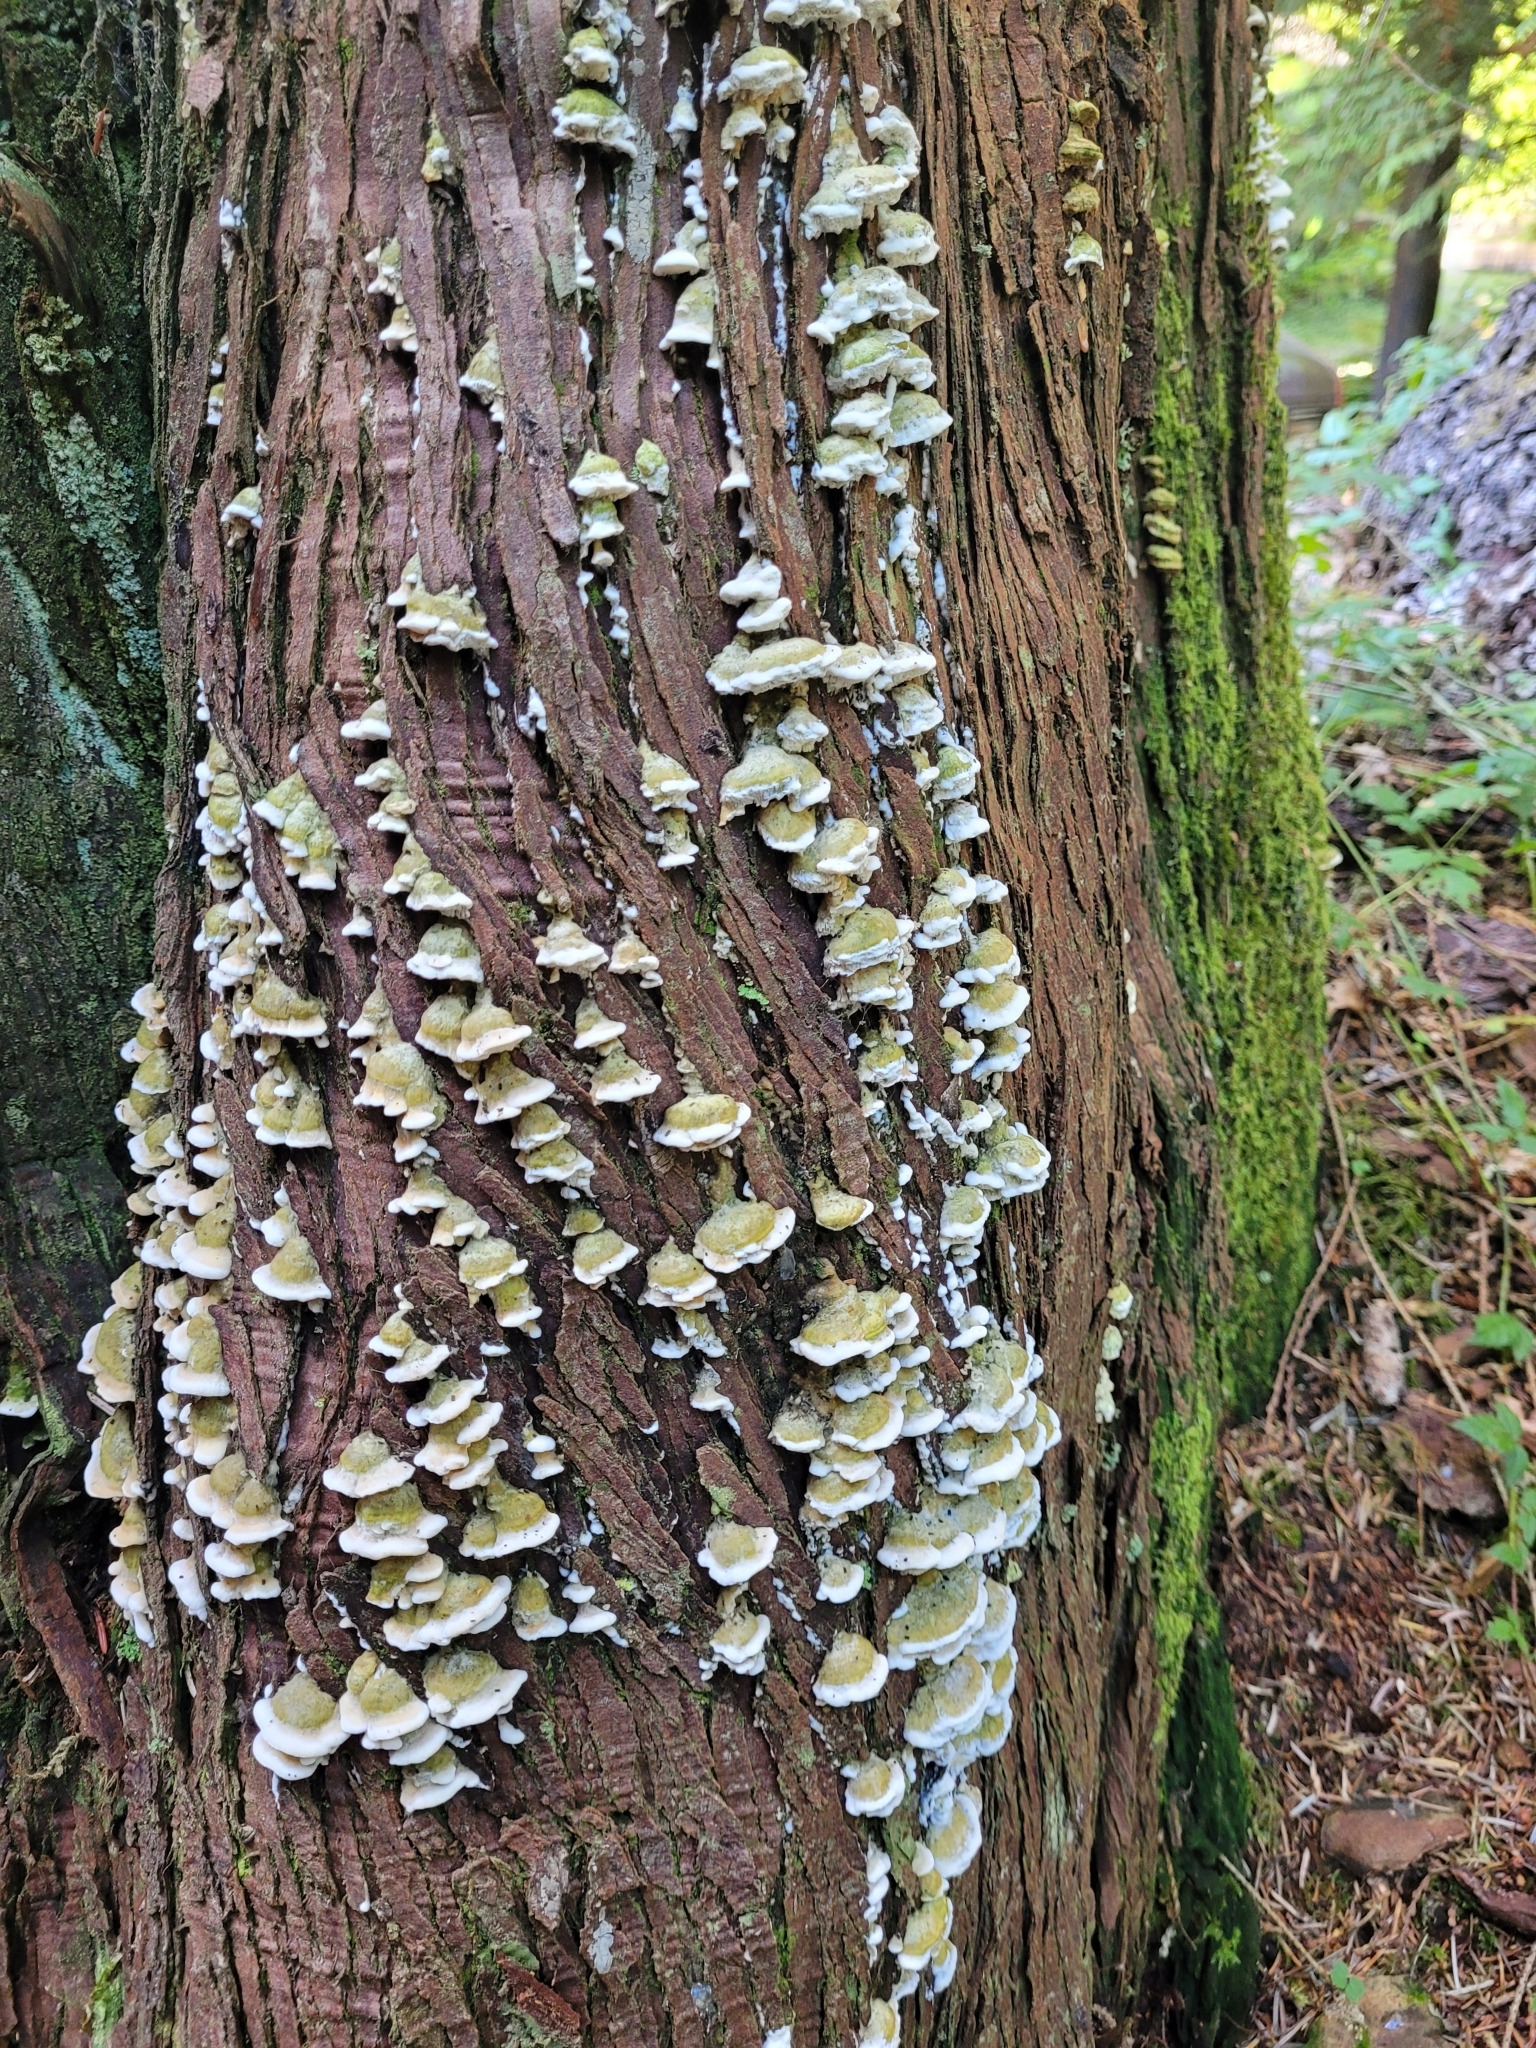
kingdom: Fungi
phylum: Basidiomycota
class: Agaricomycetes
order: Polyporales
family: Polyporaceae
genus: Trametes
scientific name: Trametes hirsuta
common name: Hairy bracket
